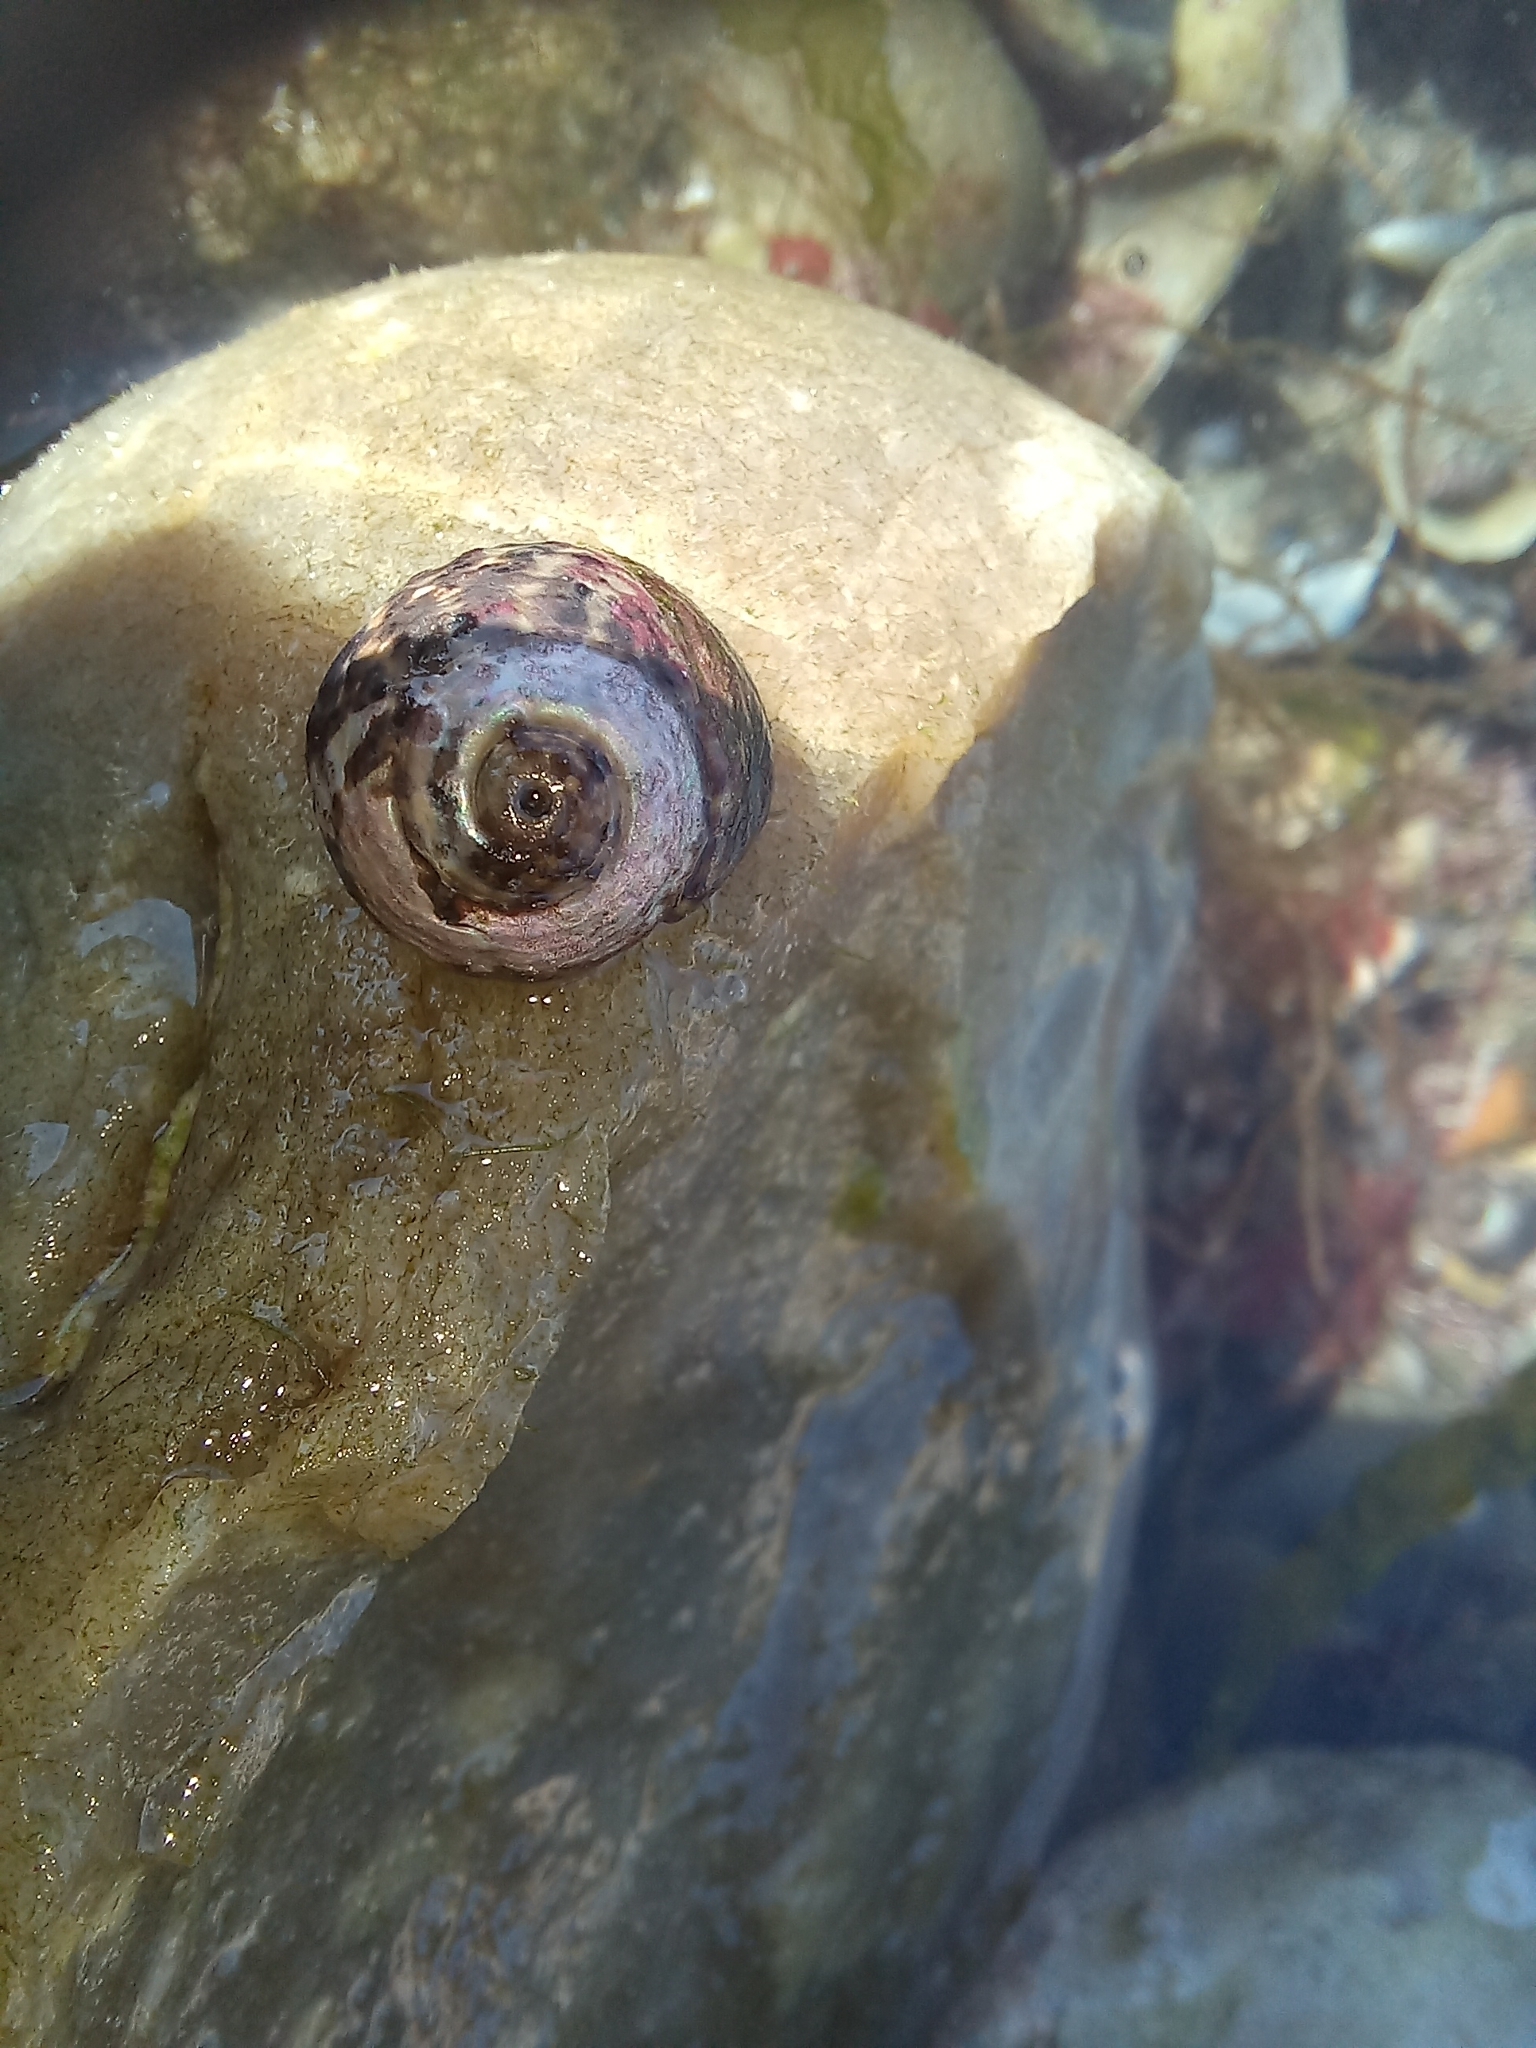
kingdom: Animalia
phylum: Mollusca
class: Gastropoda
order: Trochida
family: Trochidae
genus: Phorcus
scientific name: Phorcus lineatus
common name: Toothed top shell
